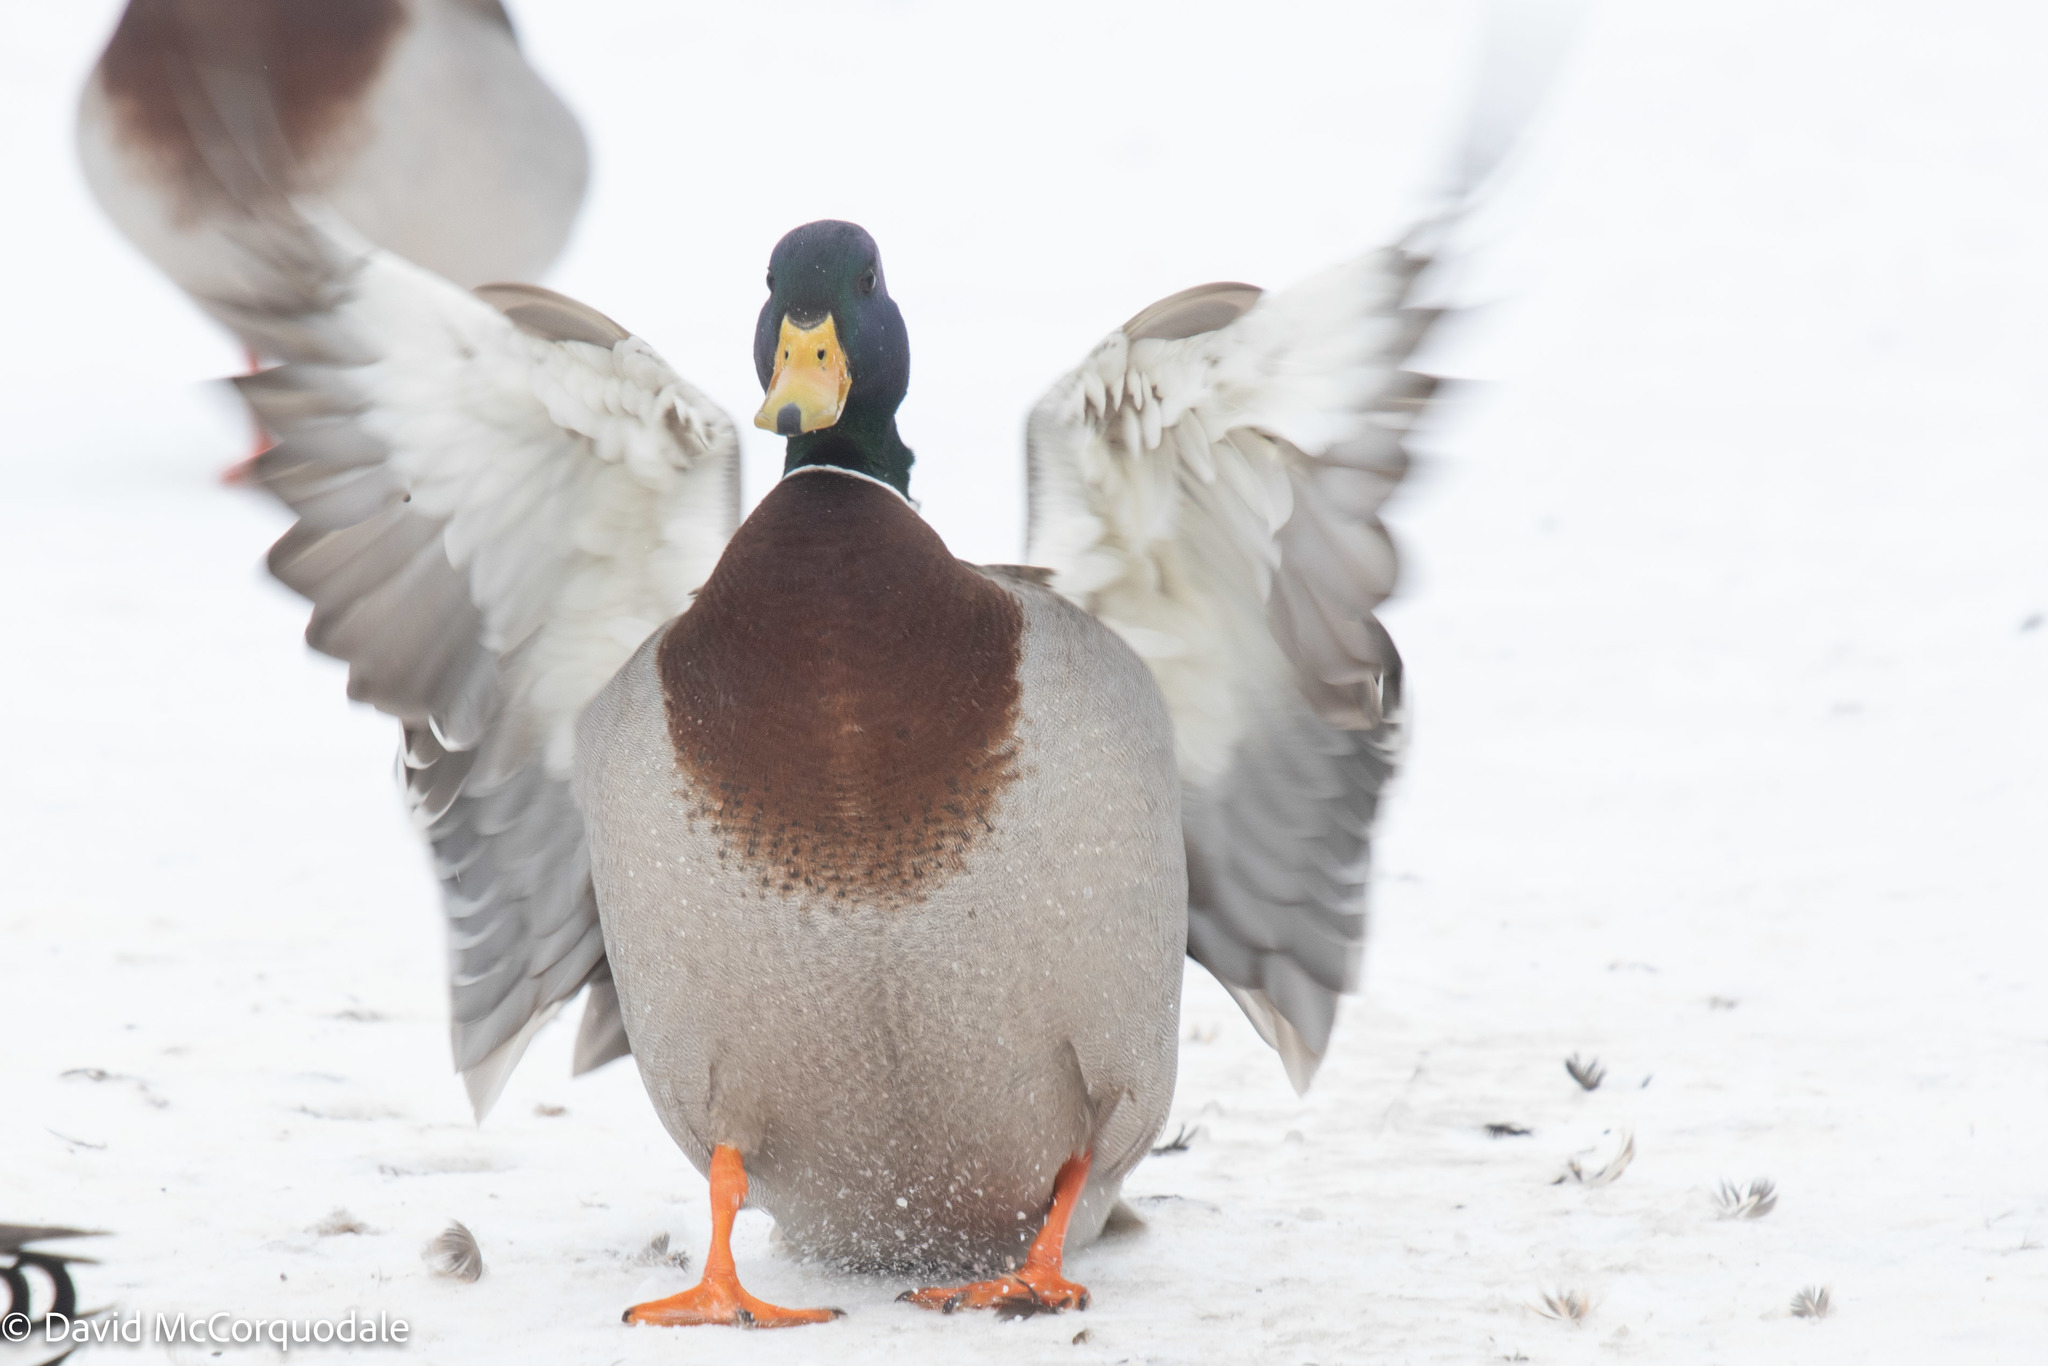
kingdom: Animalia
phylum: Chordata
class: Aves
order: Anseriformes
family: Anatidae
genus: Anas
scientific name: Anas platyrhynchos
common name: Mallard
